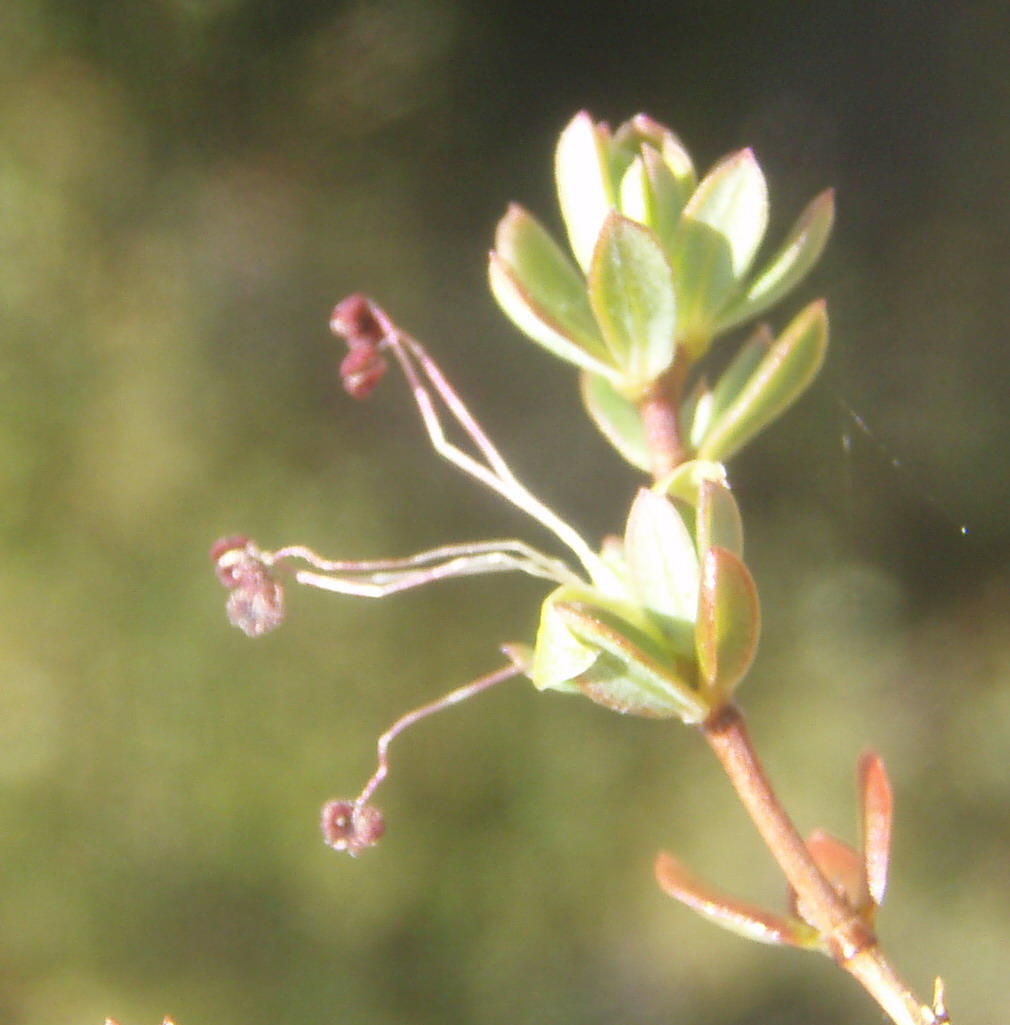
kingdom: Plantae
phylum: Tracheophyta
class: Magnoliopsida
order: Rosales
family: Rosaceae
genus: Cliffortia
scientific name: Cliffortia polita
